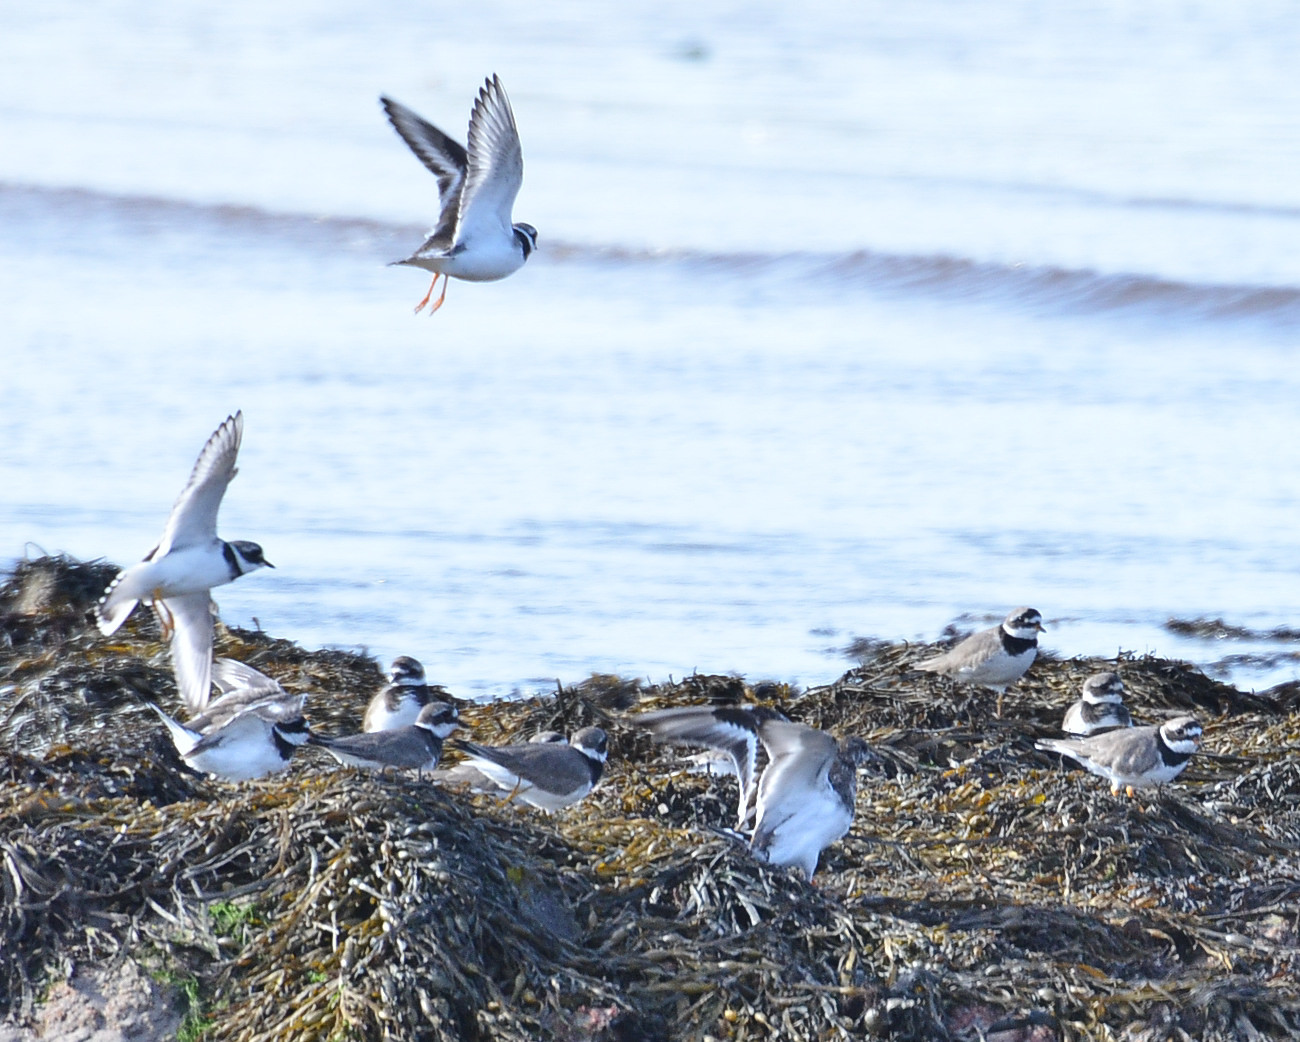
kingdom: Animalia
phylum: Chordata
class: Aves
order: Charadriiformes
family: Charadriidae
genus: Charadrius
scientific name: Charadrius hiaticula
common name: Common ringed plover
